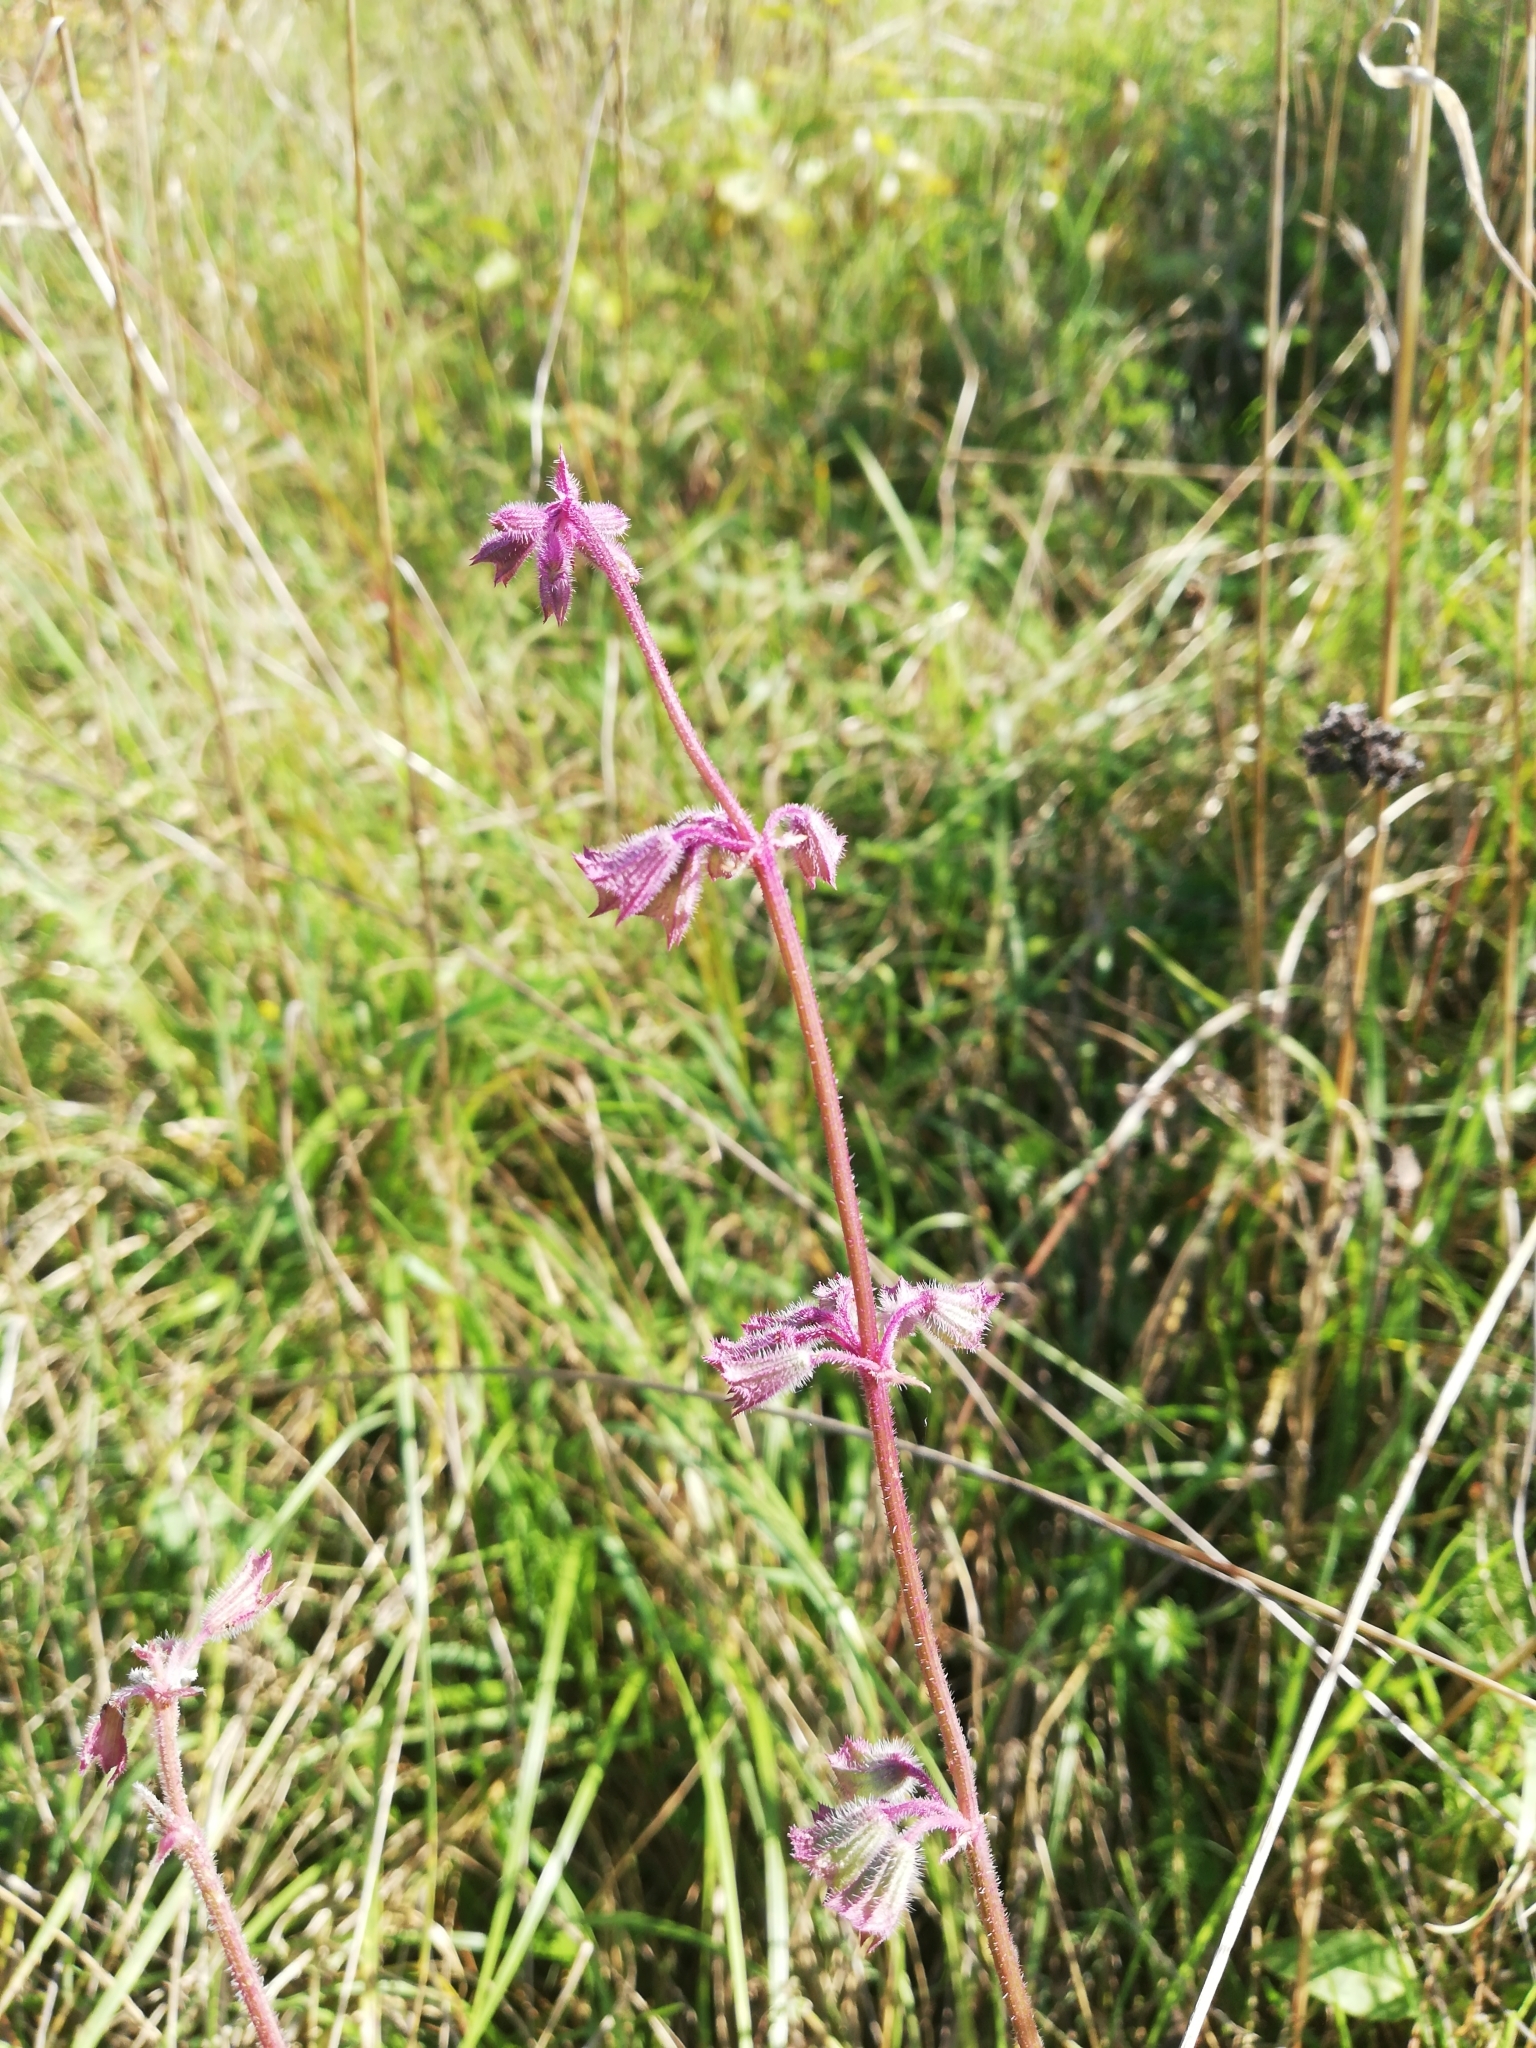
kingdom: Plantae
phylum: Tracheophyta
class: Magnoliopsida
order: Lamiales
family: Lamiaceae
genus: Salvia
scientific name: Salvia verticillata
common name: Whorled clary
